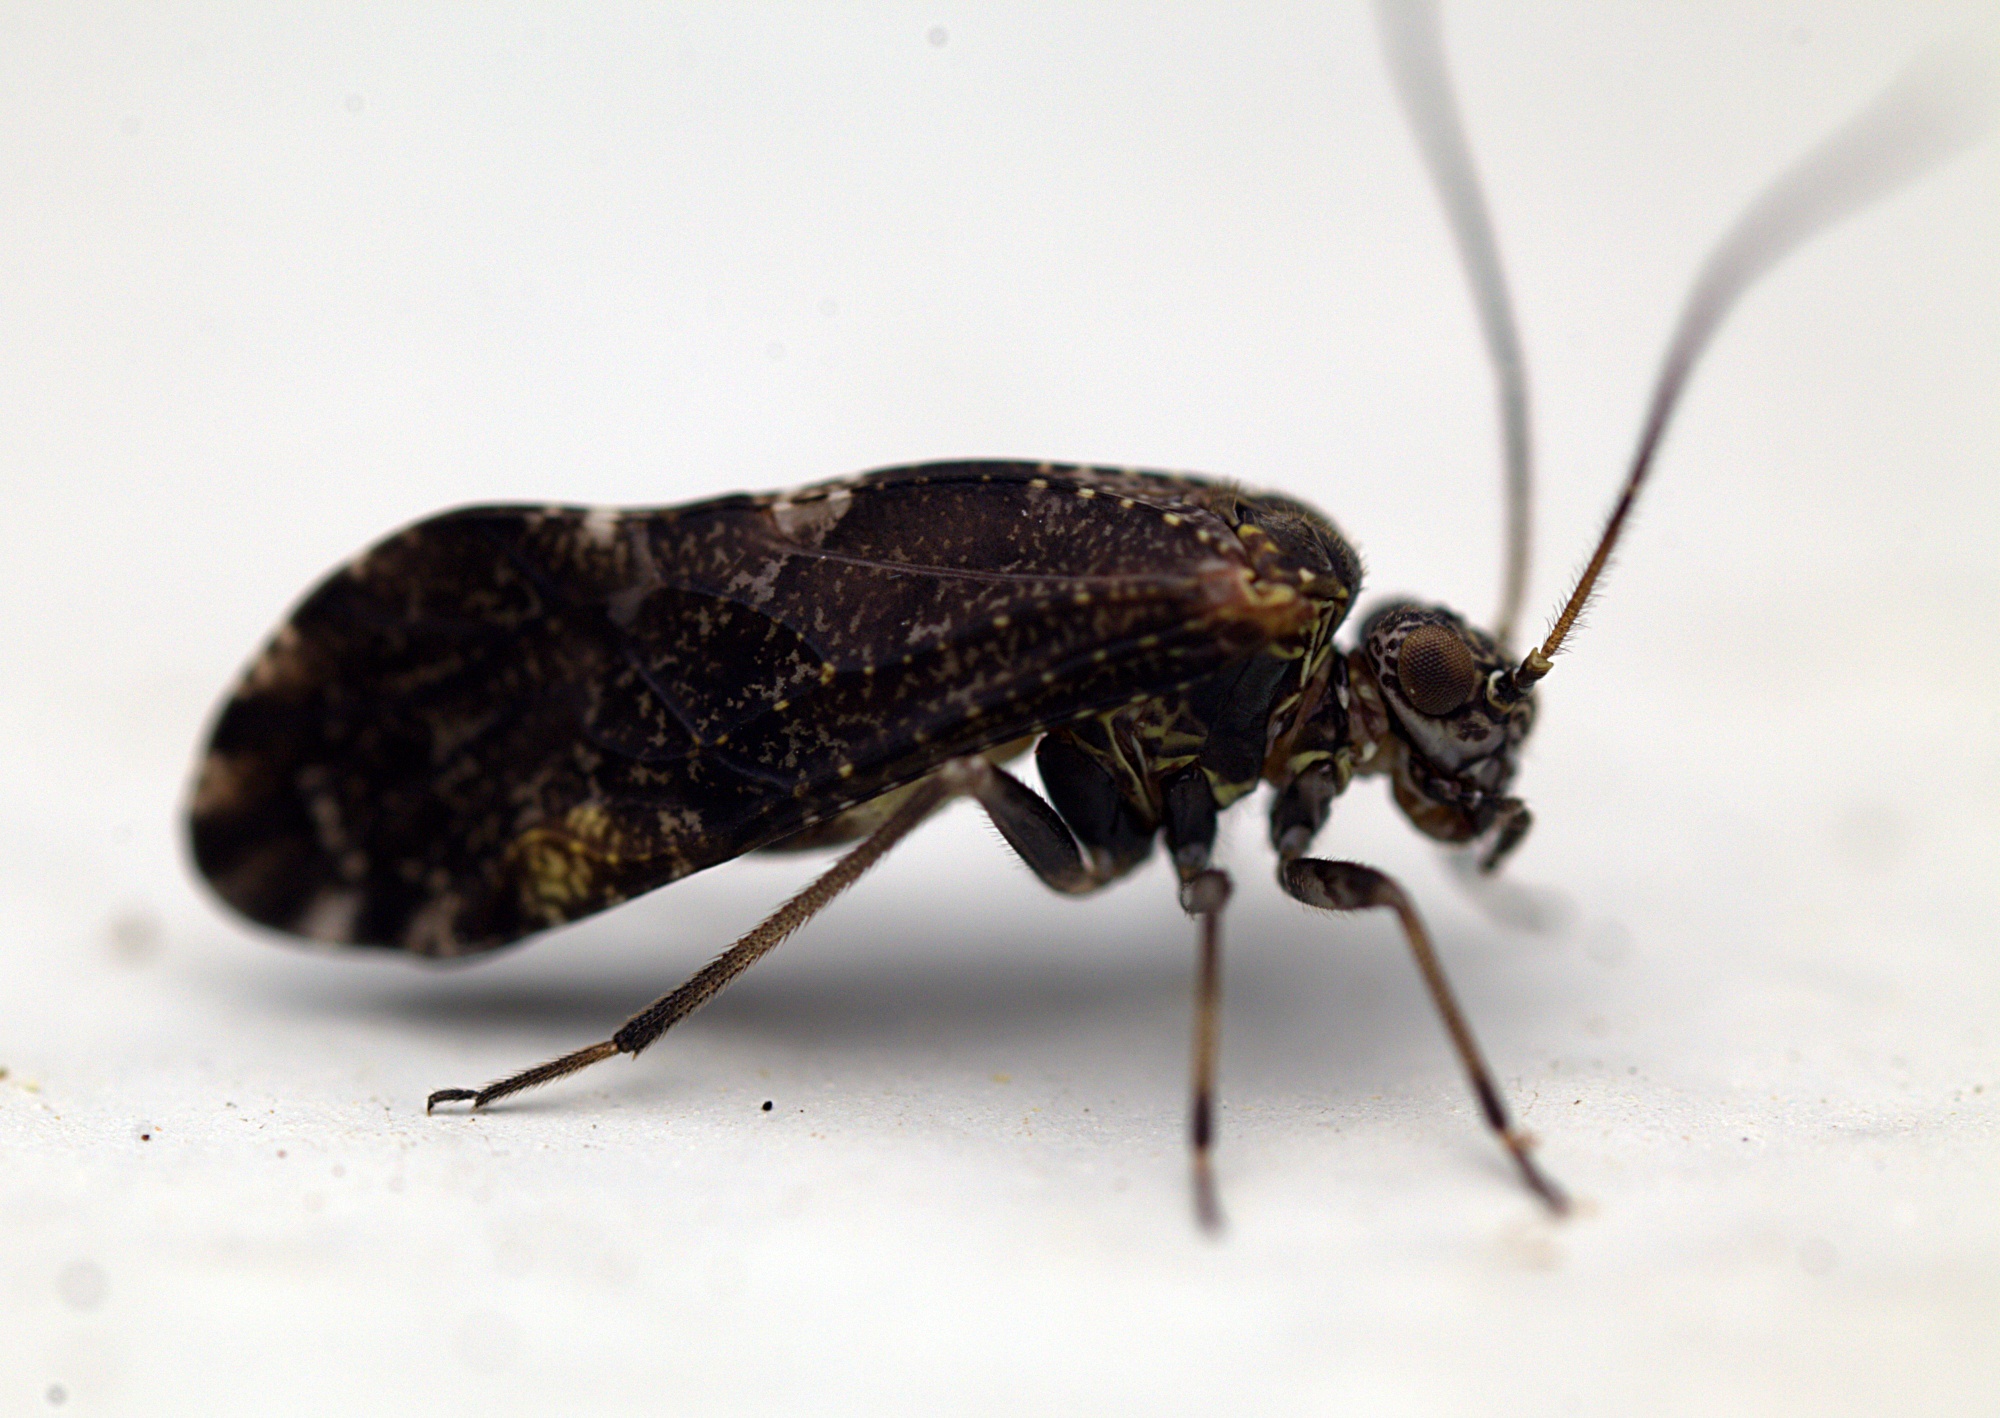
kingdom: Animalia
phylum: Arthropoda
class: Insecta
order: Psocodea
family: Myopsocidae
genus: Nimbopsocus
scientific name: Nimbopsocus australis
